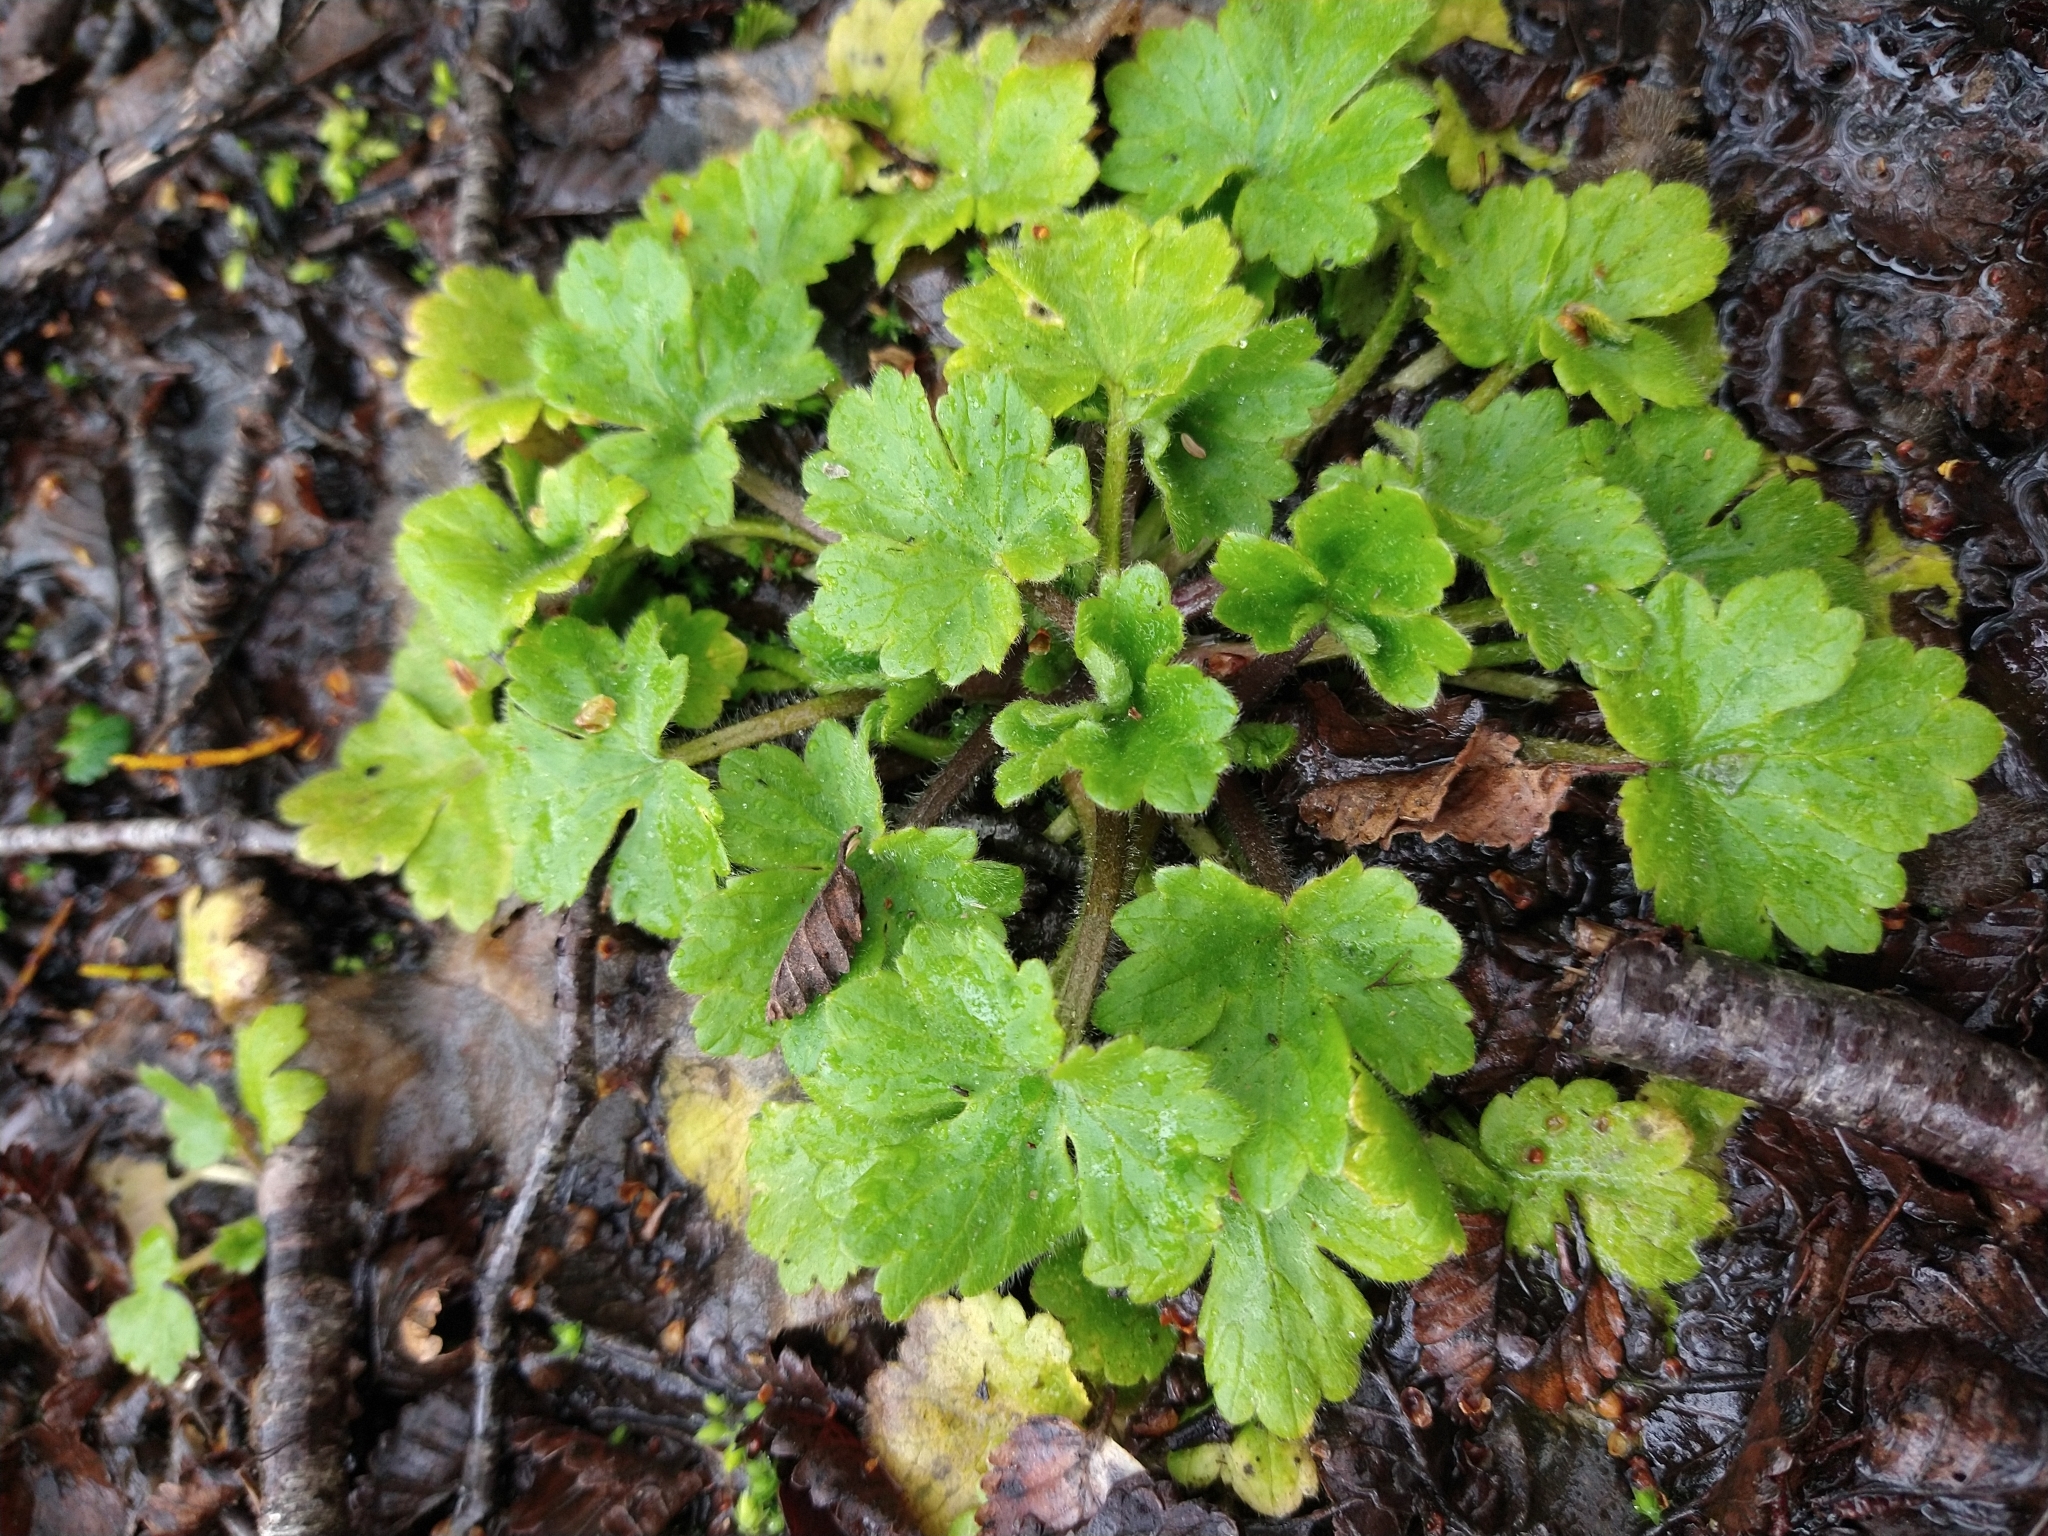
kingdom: Plantae
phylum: Tracheophyta
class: Magnoliopsida
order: Ranunculales
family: Ranunculaceae
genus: Ranunculus
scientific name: Ranunculus repens
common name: Creeping buttercup
